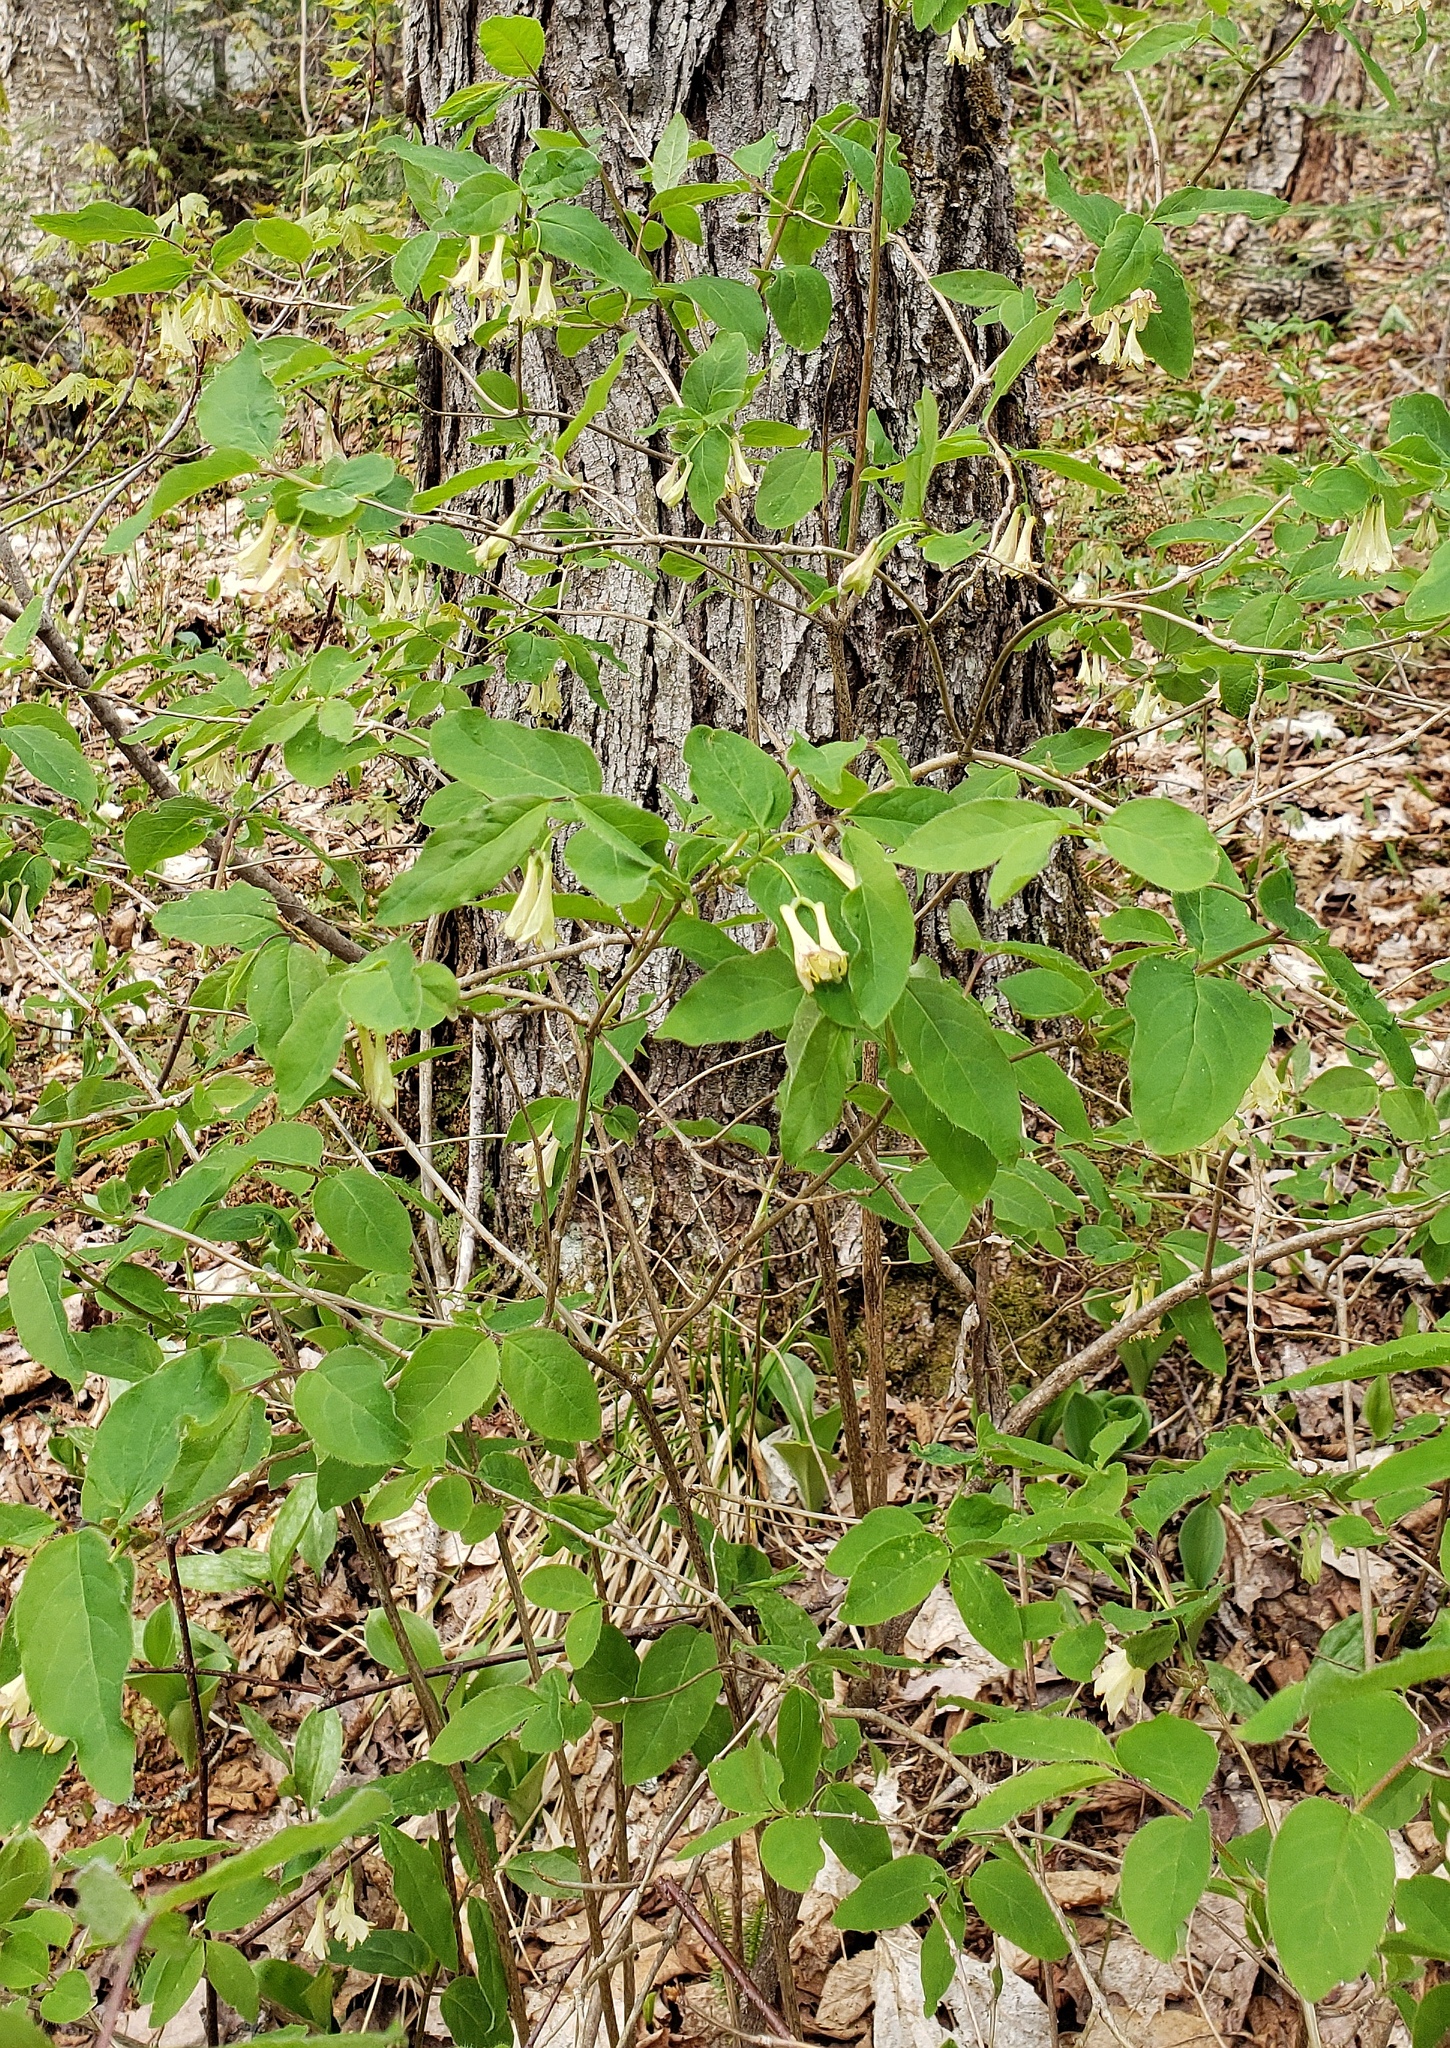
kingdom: Plantae
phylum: Tracheophyta
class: Magnoliopsida
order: Dipsacales
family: Caprifoliaceae
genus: Lonicera
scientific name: Lonicera canadensis
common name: American fly-honeysuckle
